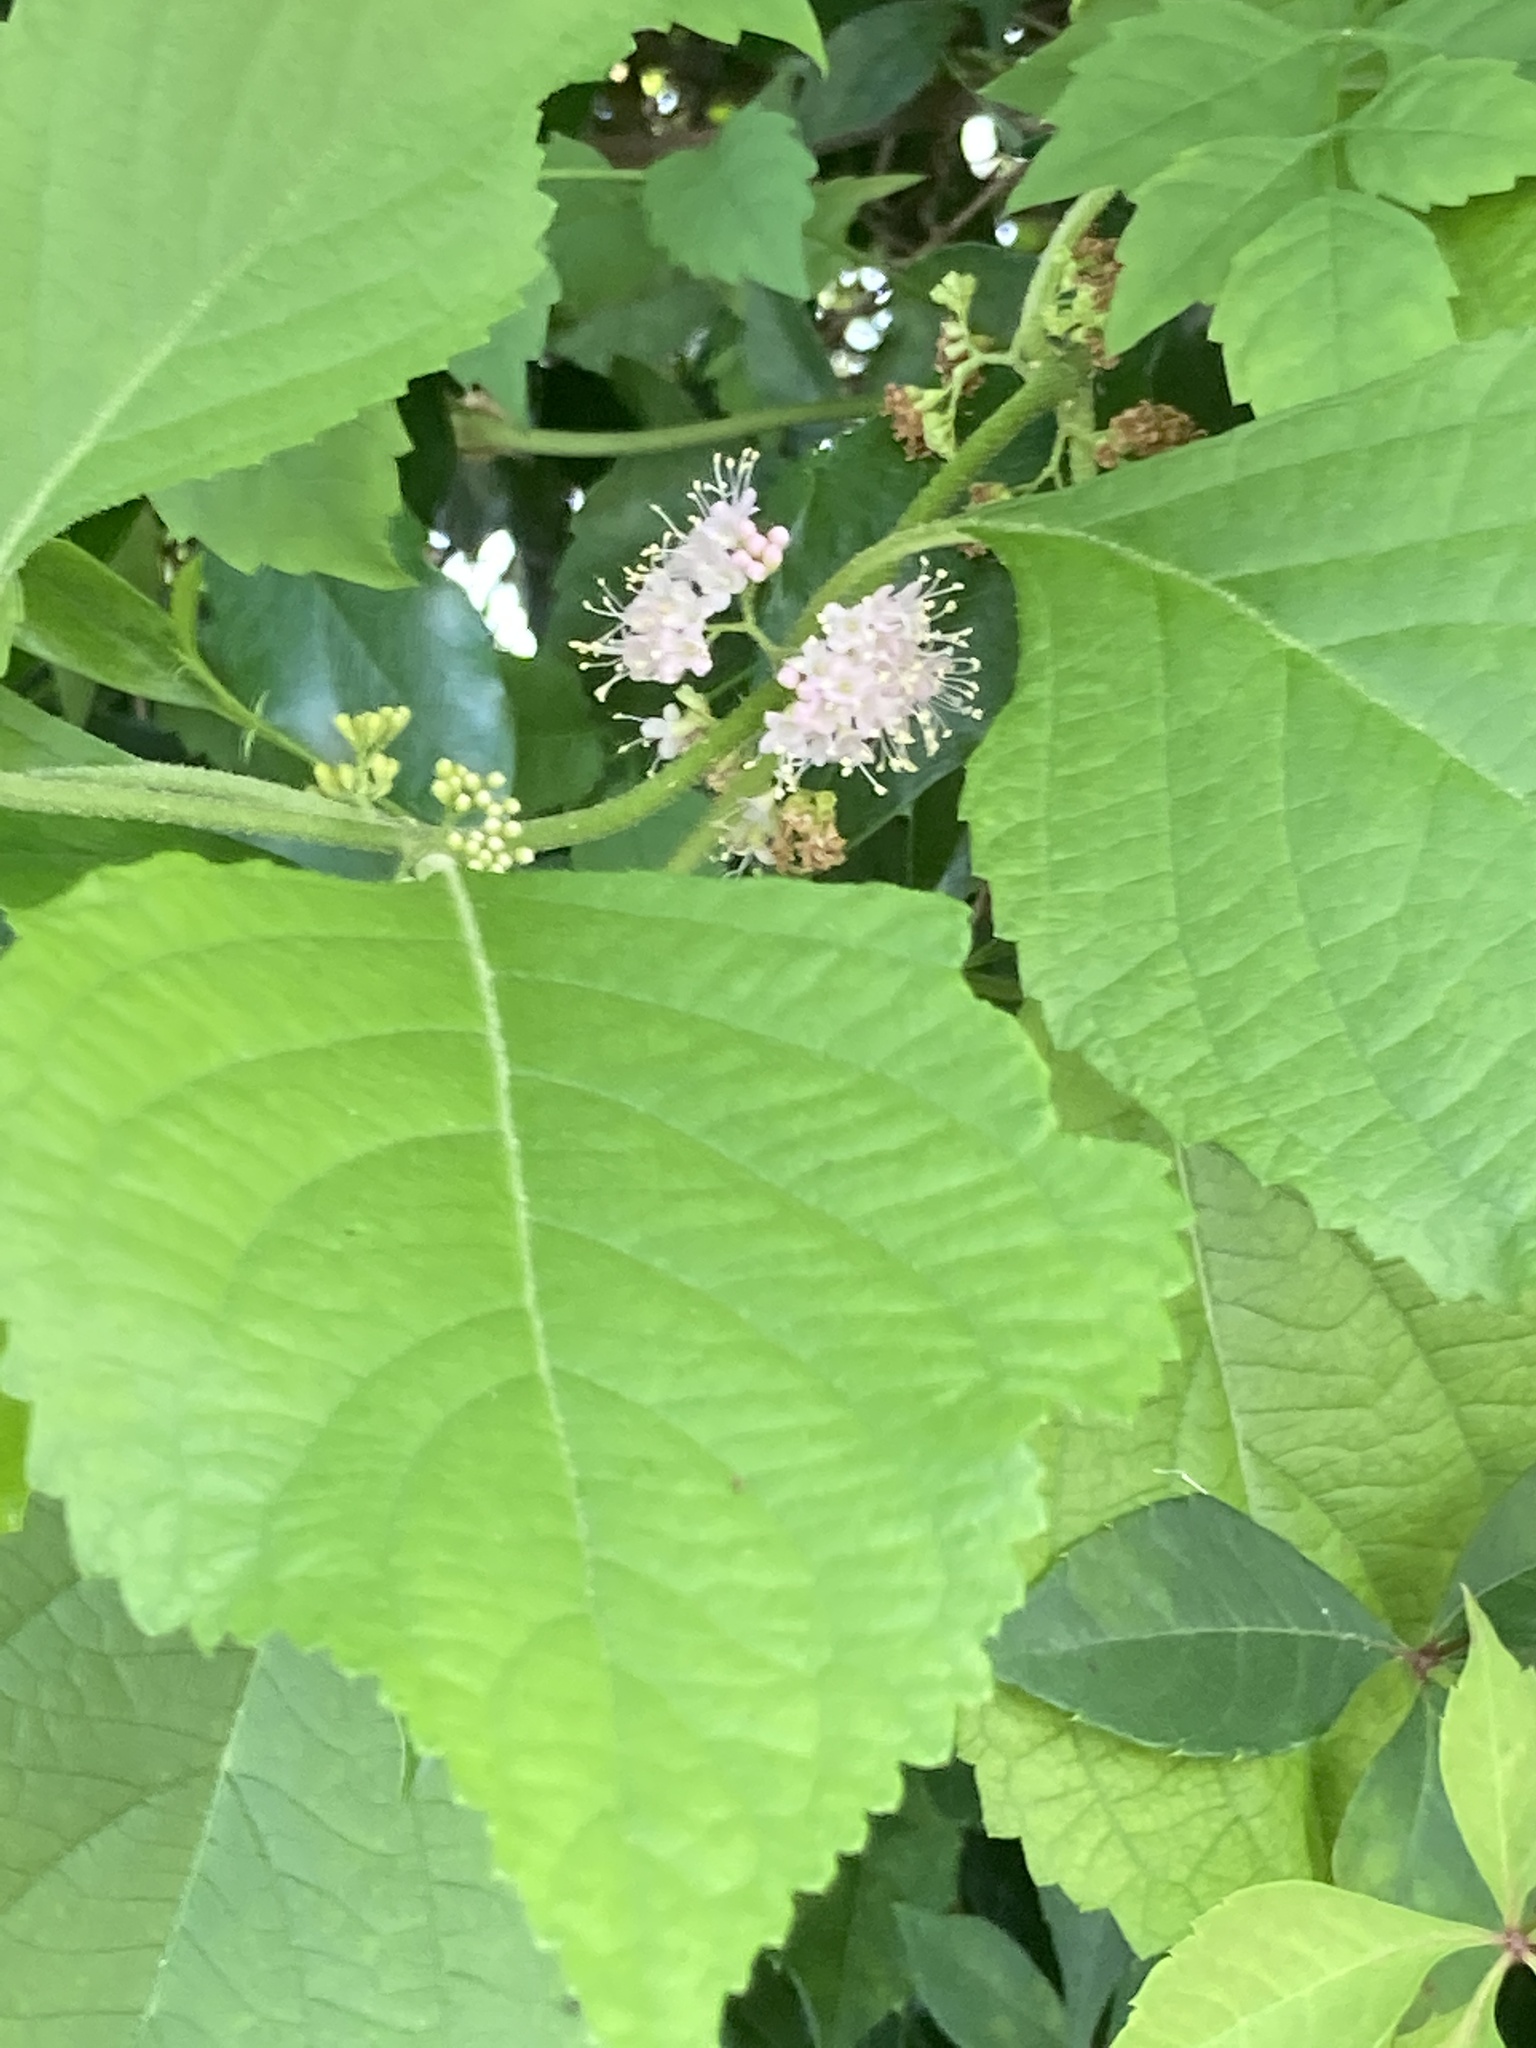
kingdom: Plantae
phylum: Tracheophyta
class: Magnoliopsida
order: Lamiales
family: Lamiaceae
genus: Callicarpa
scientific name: Callicarpa americana
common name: American beautyberry
